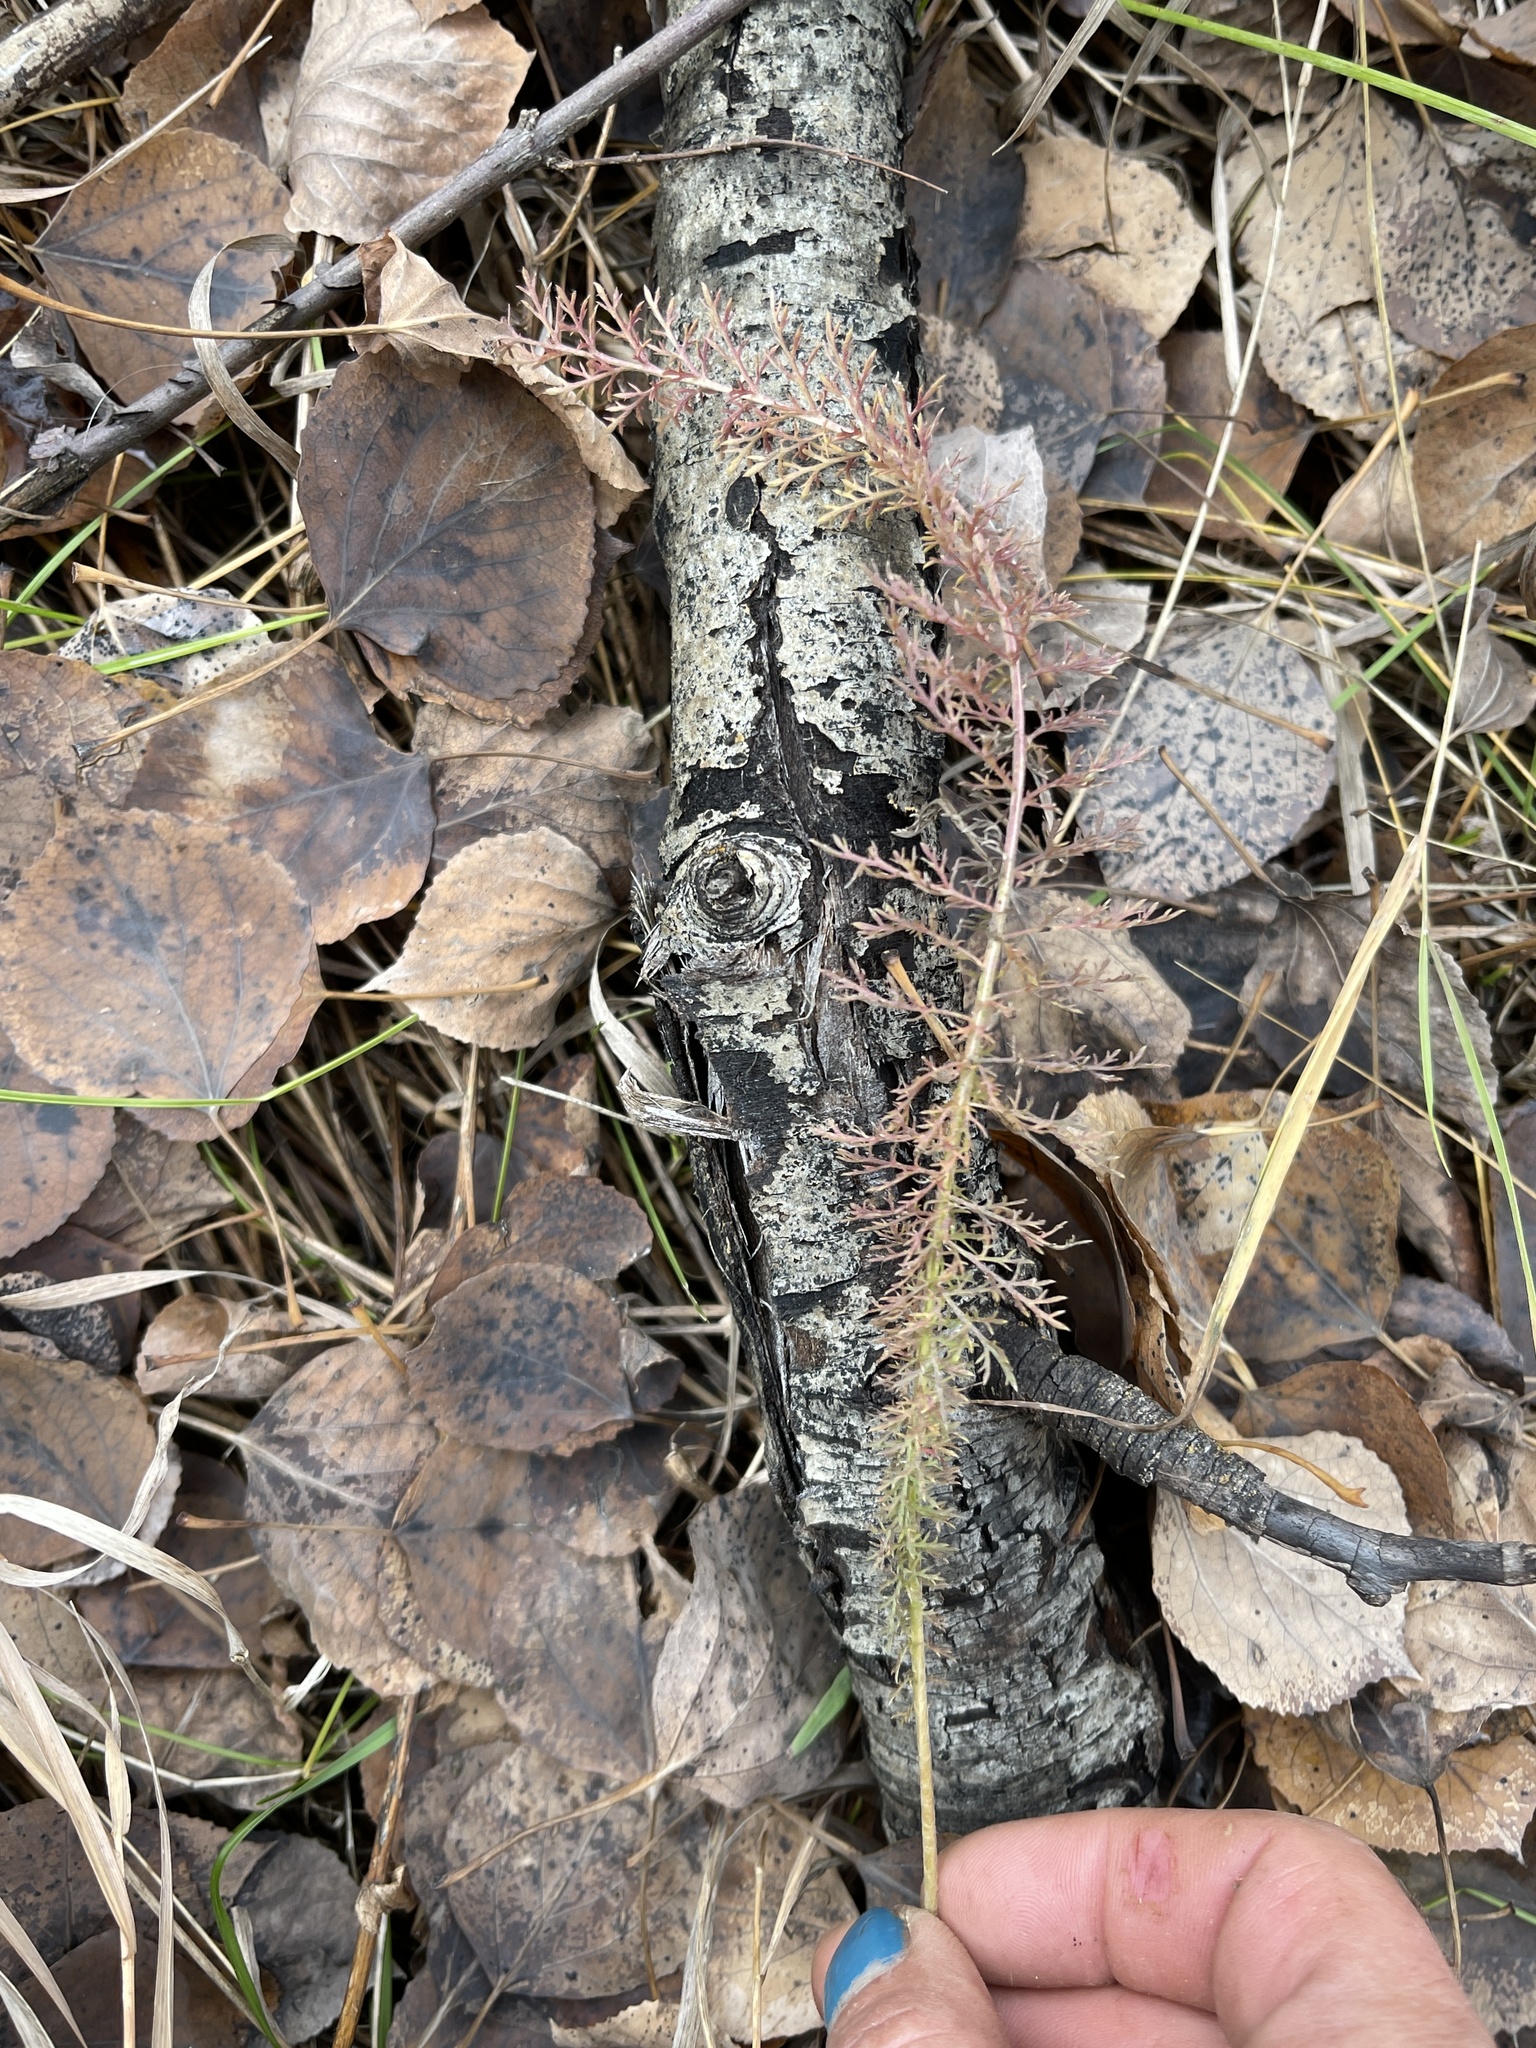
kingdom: Plantae
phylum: Tracheophyta
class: Magnoliopsida
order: Asterales
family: Asteraceae
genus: Achillea
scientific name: Achillea millefolium
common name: Yarrow
